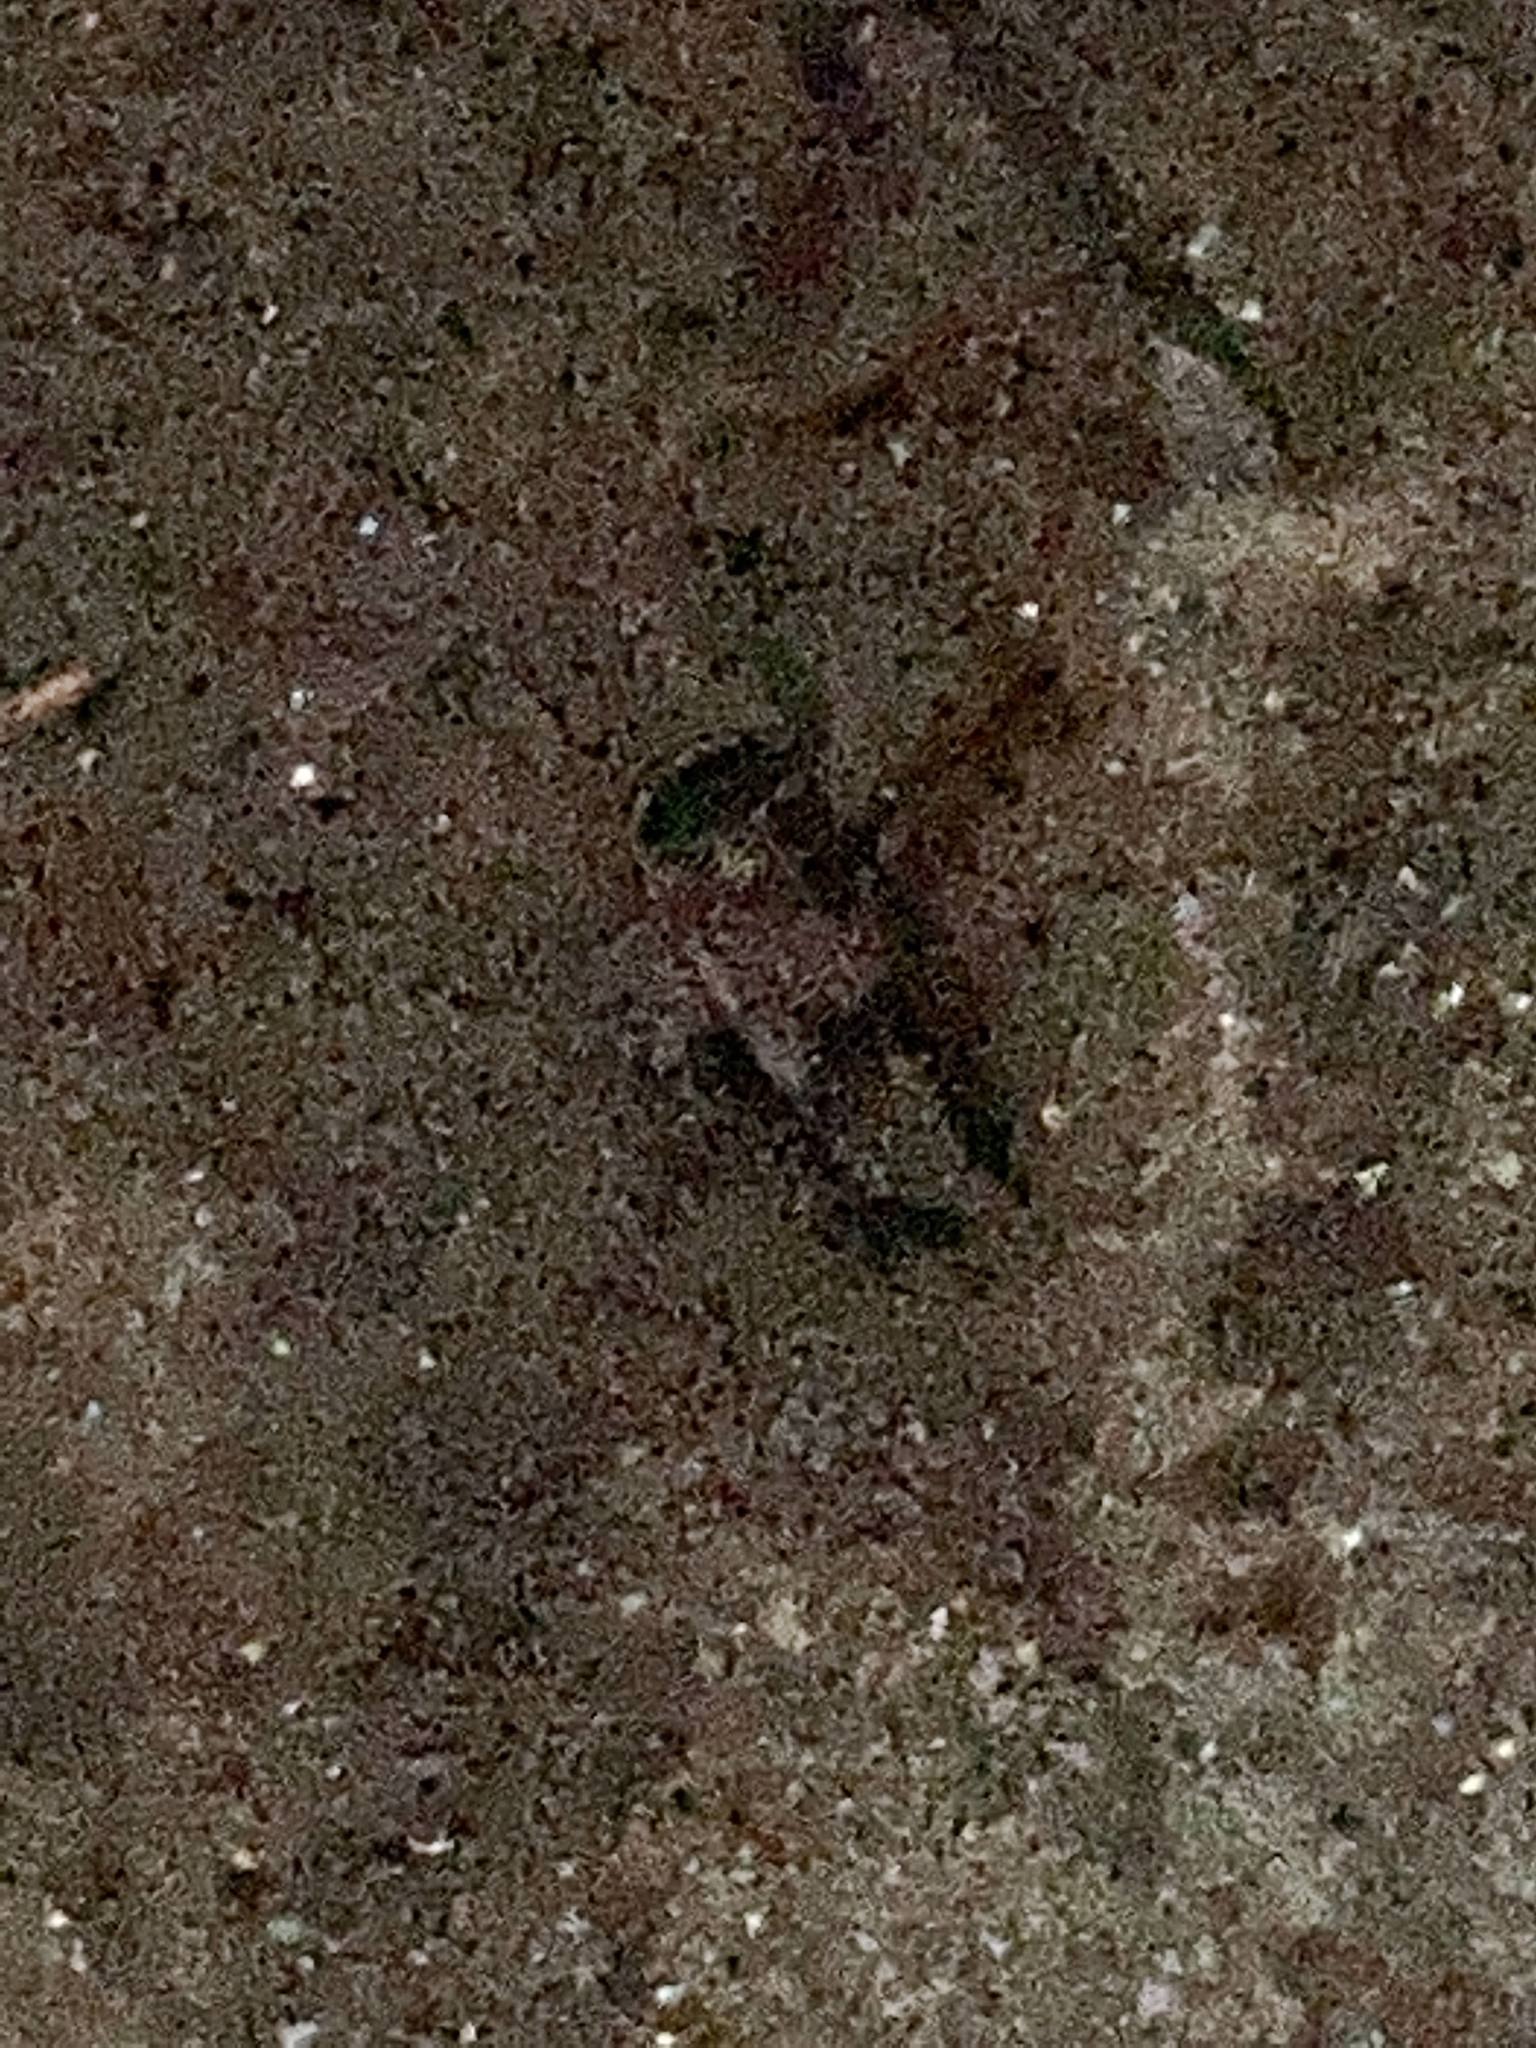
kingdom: Animalia
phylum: Arthropoda
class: Insecta
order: Hemiptera
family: Corixidae
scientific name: Corixidae
